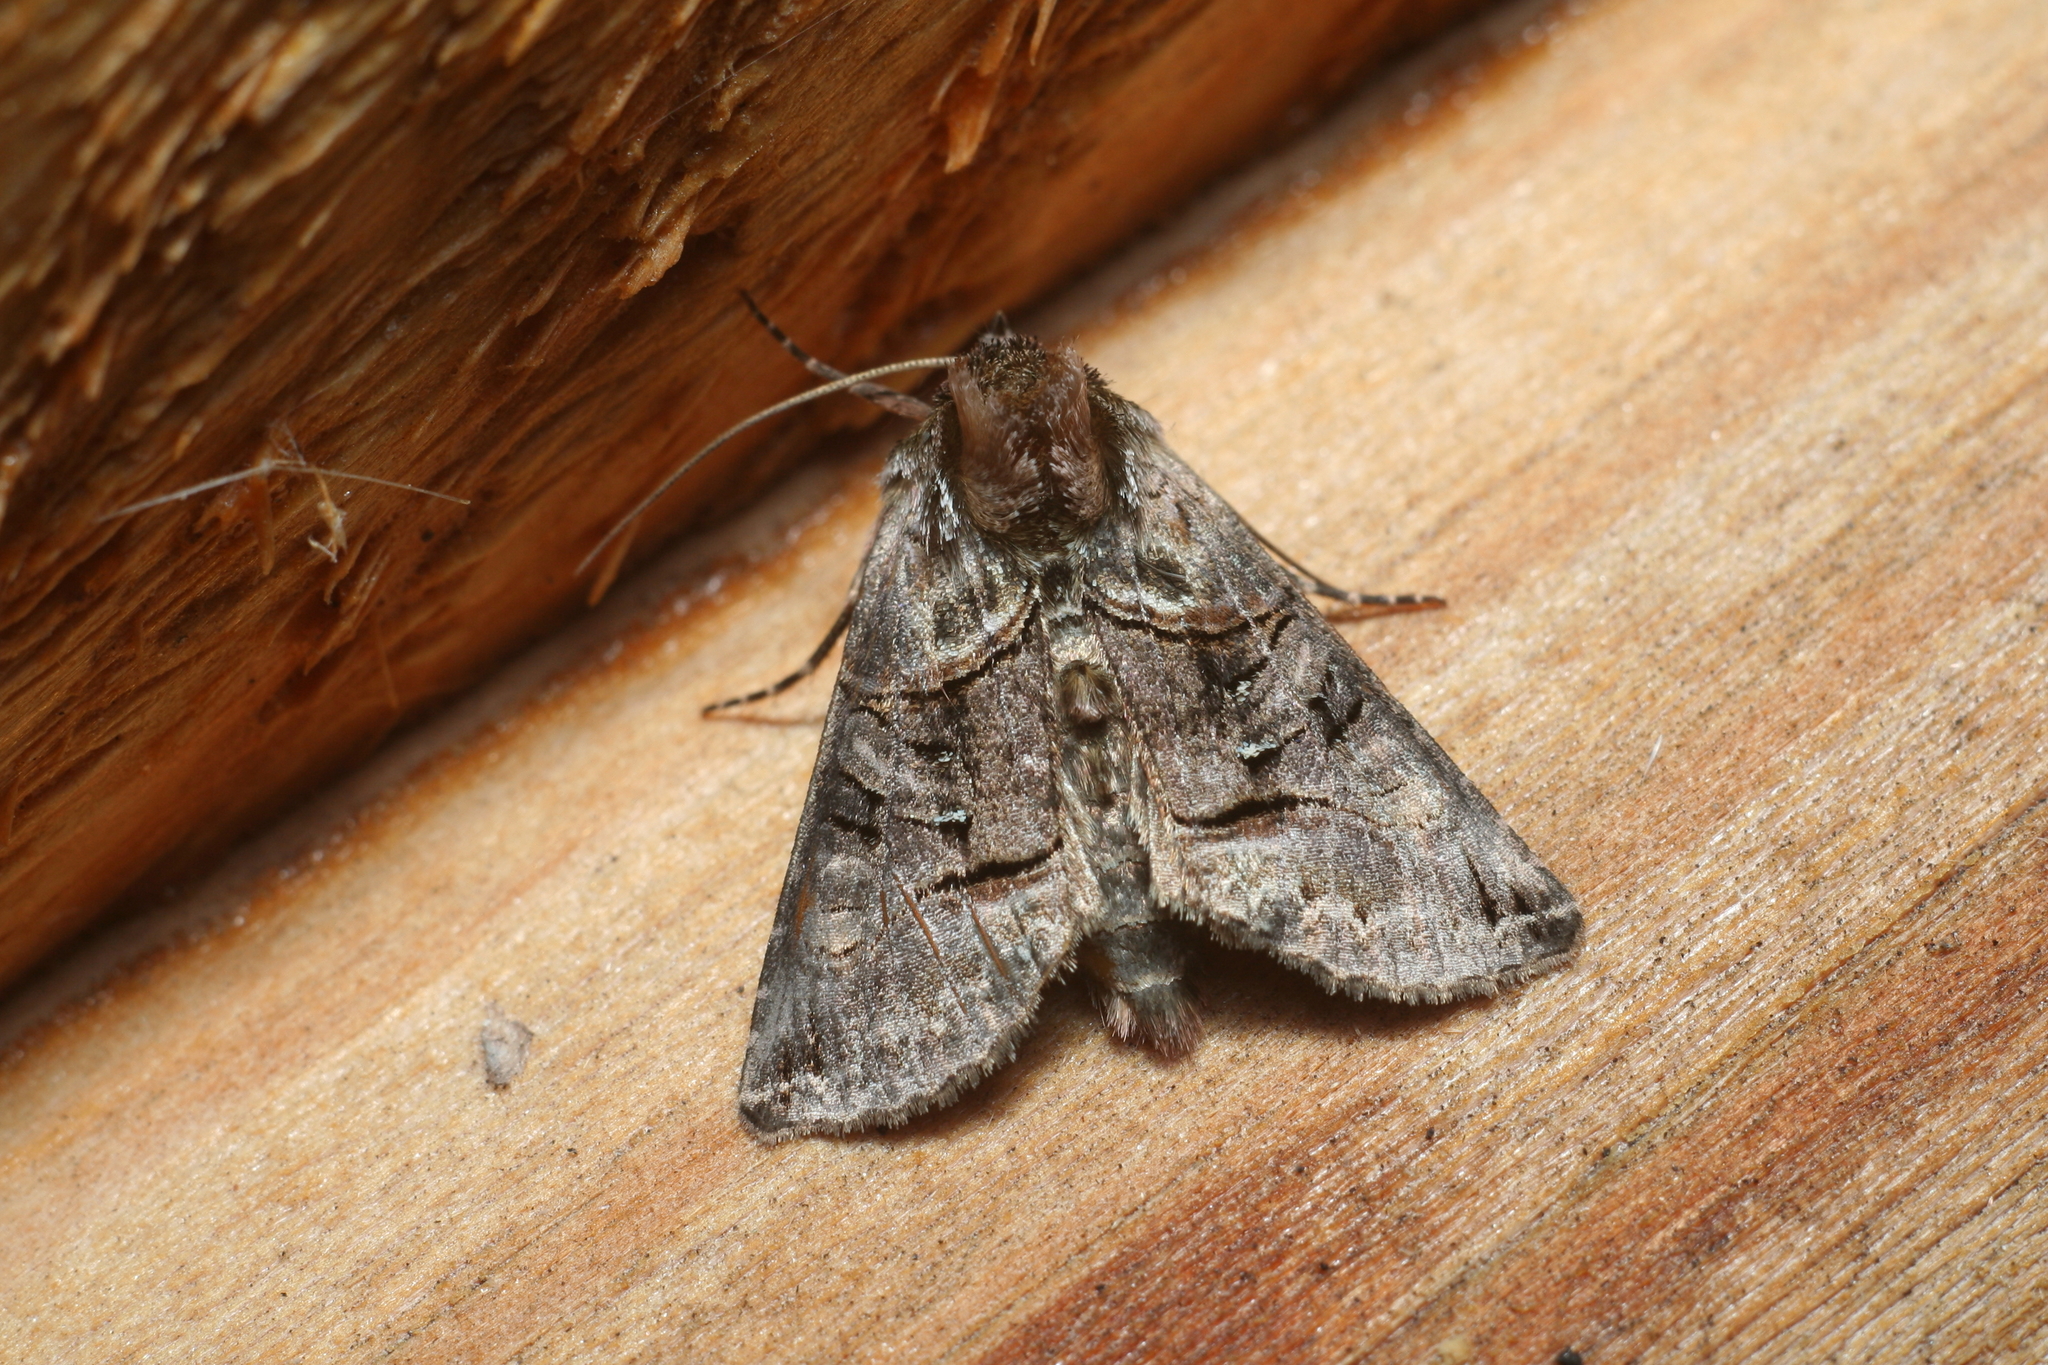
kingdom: Animalia
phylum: Arthropoda
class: Insecta
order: Lepidoptera
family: Noctuidae
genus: Abrostola
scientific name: Abrostola tripartita
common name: Spectacle
